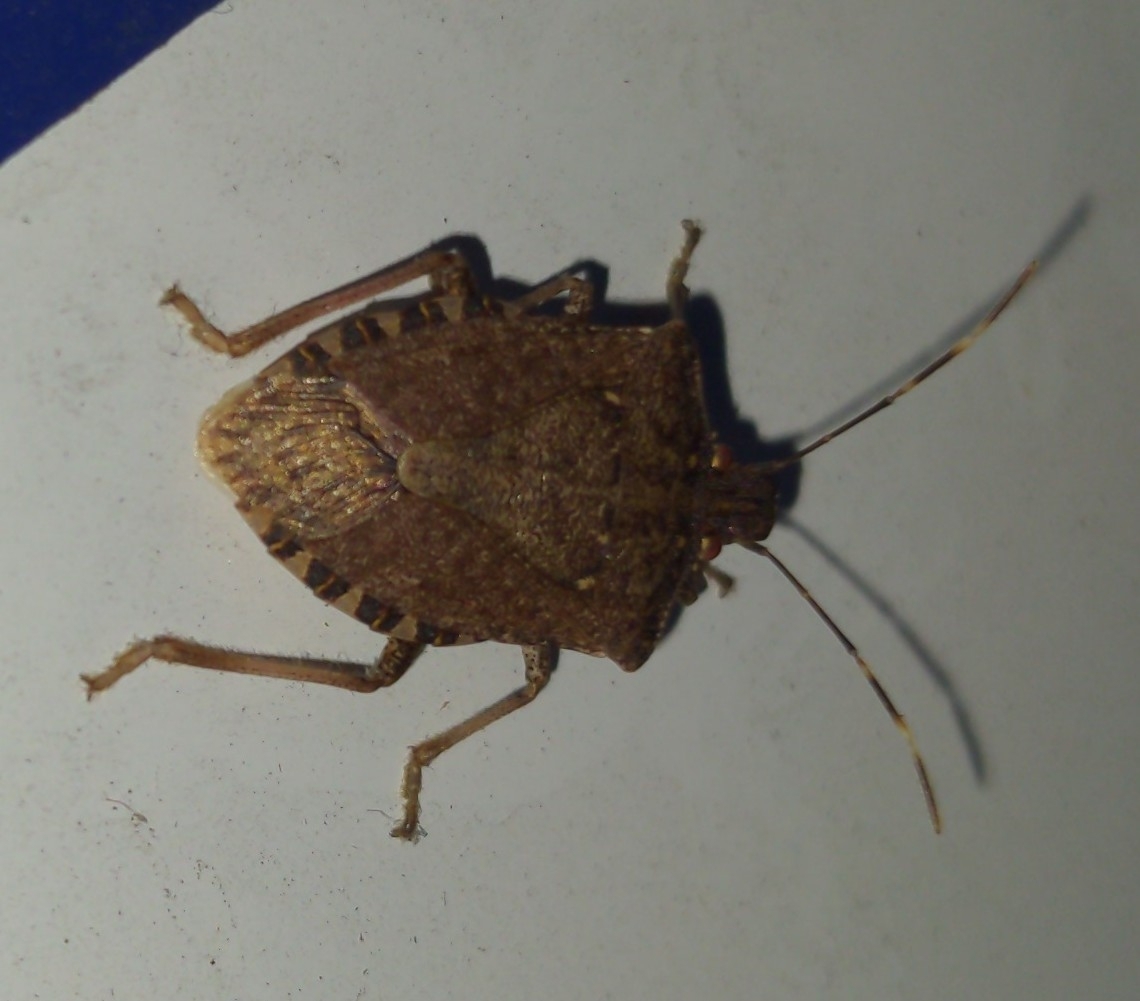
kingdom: Animalia
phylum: Arthropoda
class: Insecta
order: Hemiptera
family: Pentatomidae
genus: Halyomorpha
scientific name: Halyomorpha halys
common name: Brown marmorated stink bug
